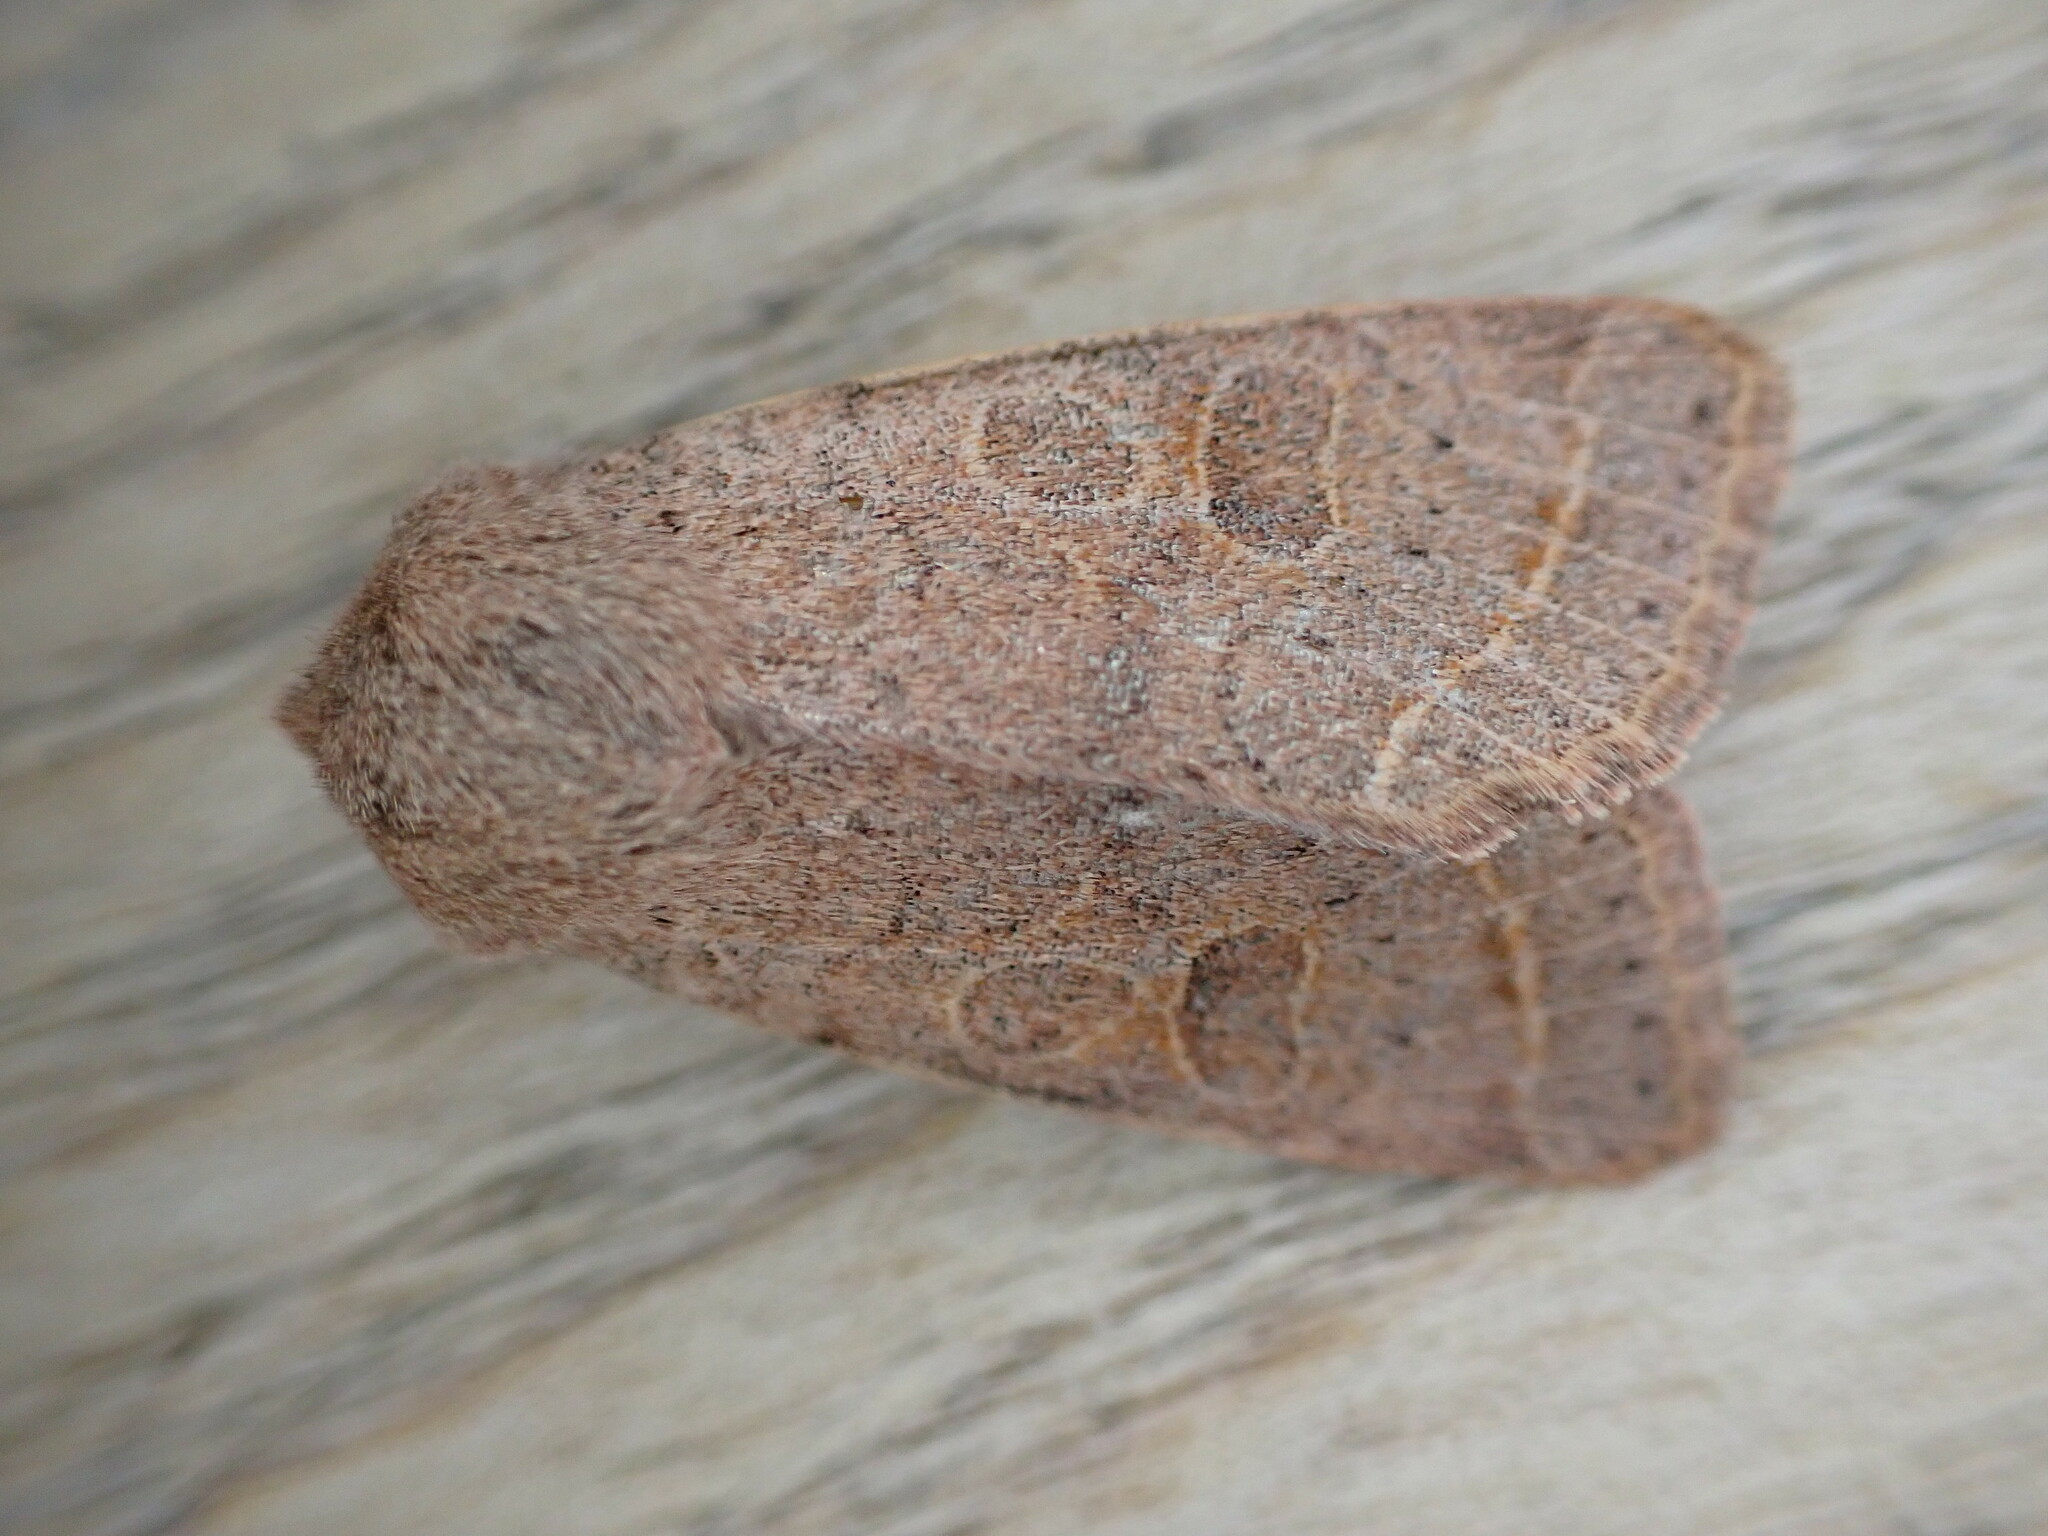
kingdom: Animalia
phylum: Arthropoda
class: Insecta
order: Lepidoptera
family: Noctuidae
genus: Orthosia
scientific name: Orthosia cerasi
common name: Common quaker
